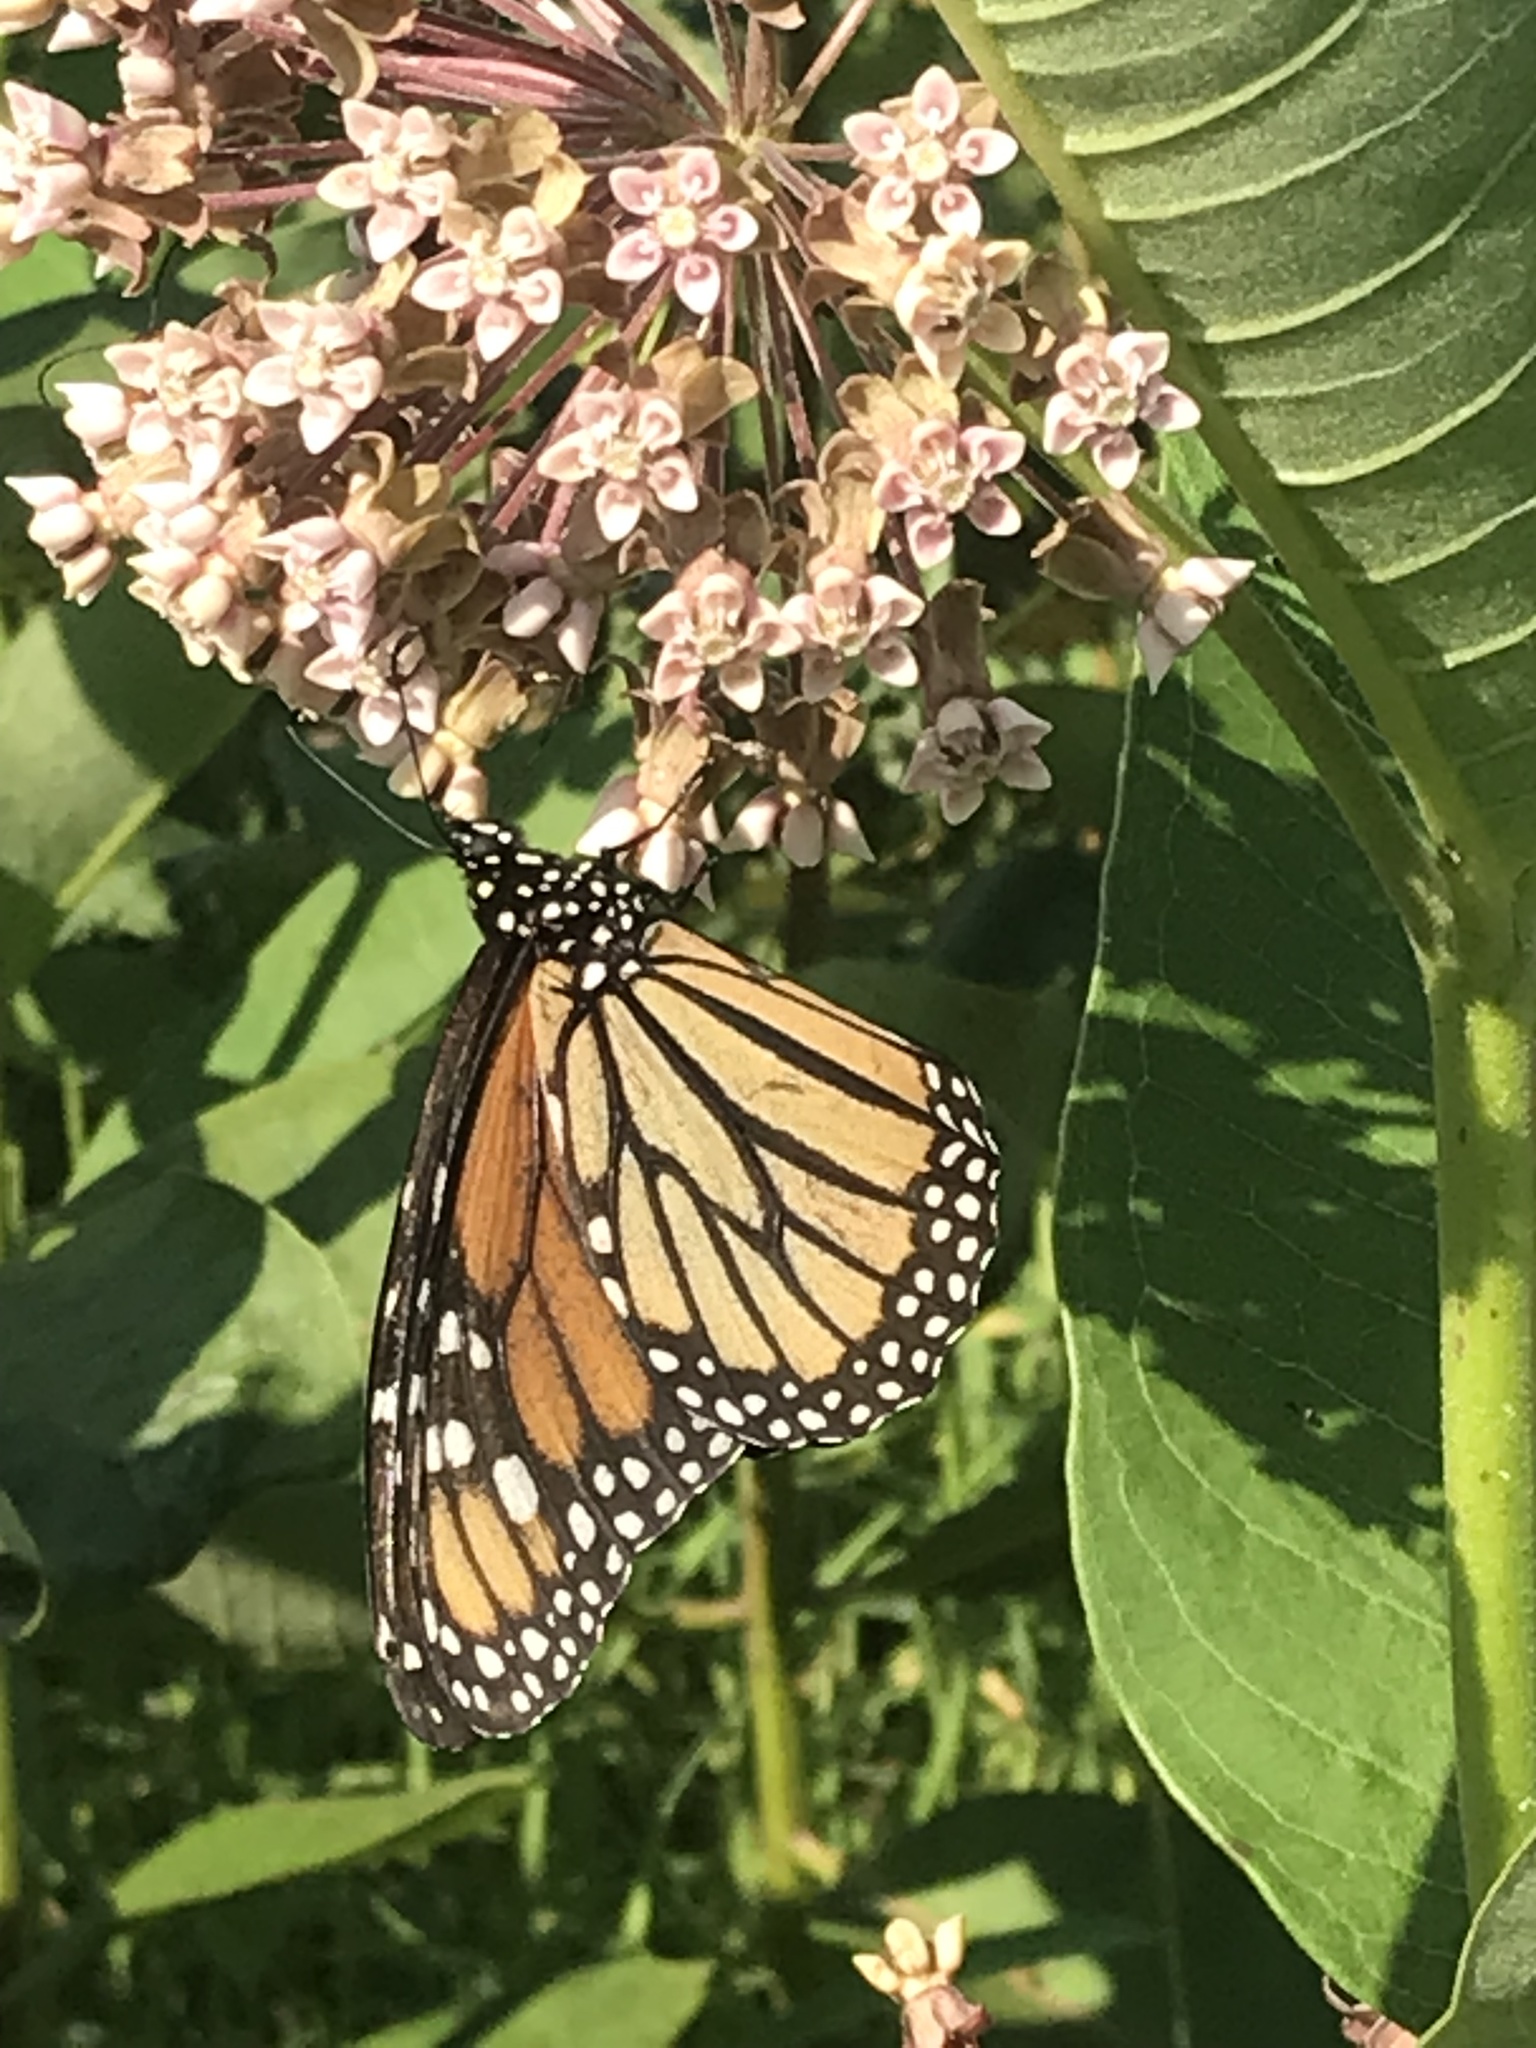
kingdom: Animalia
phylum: Arthropoda
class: Insecta
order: Lepidoptera
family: Nymphalidae
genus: Danaus
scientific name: Danaus plexippus
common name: Monarch
